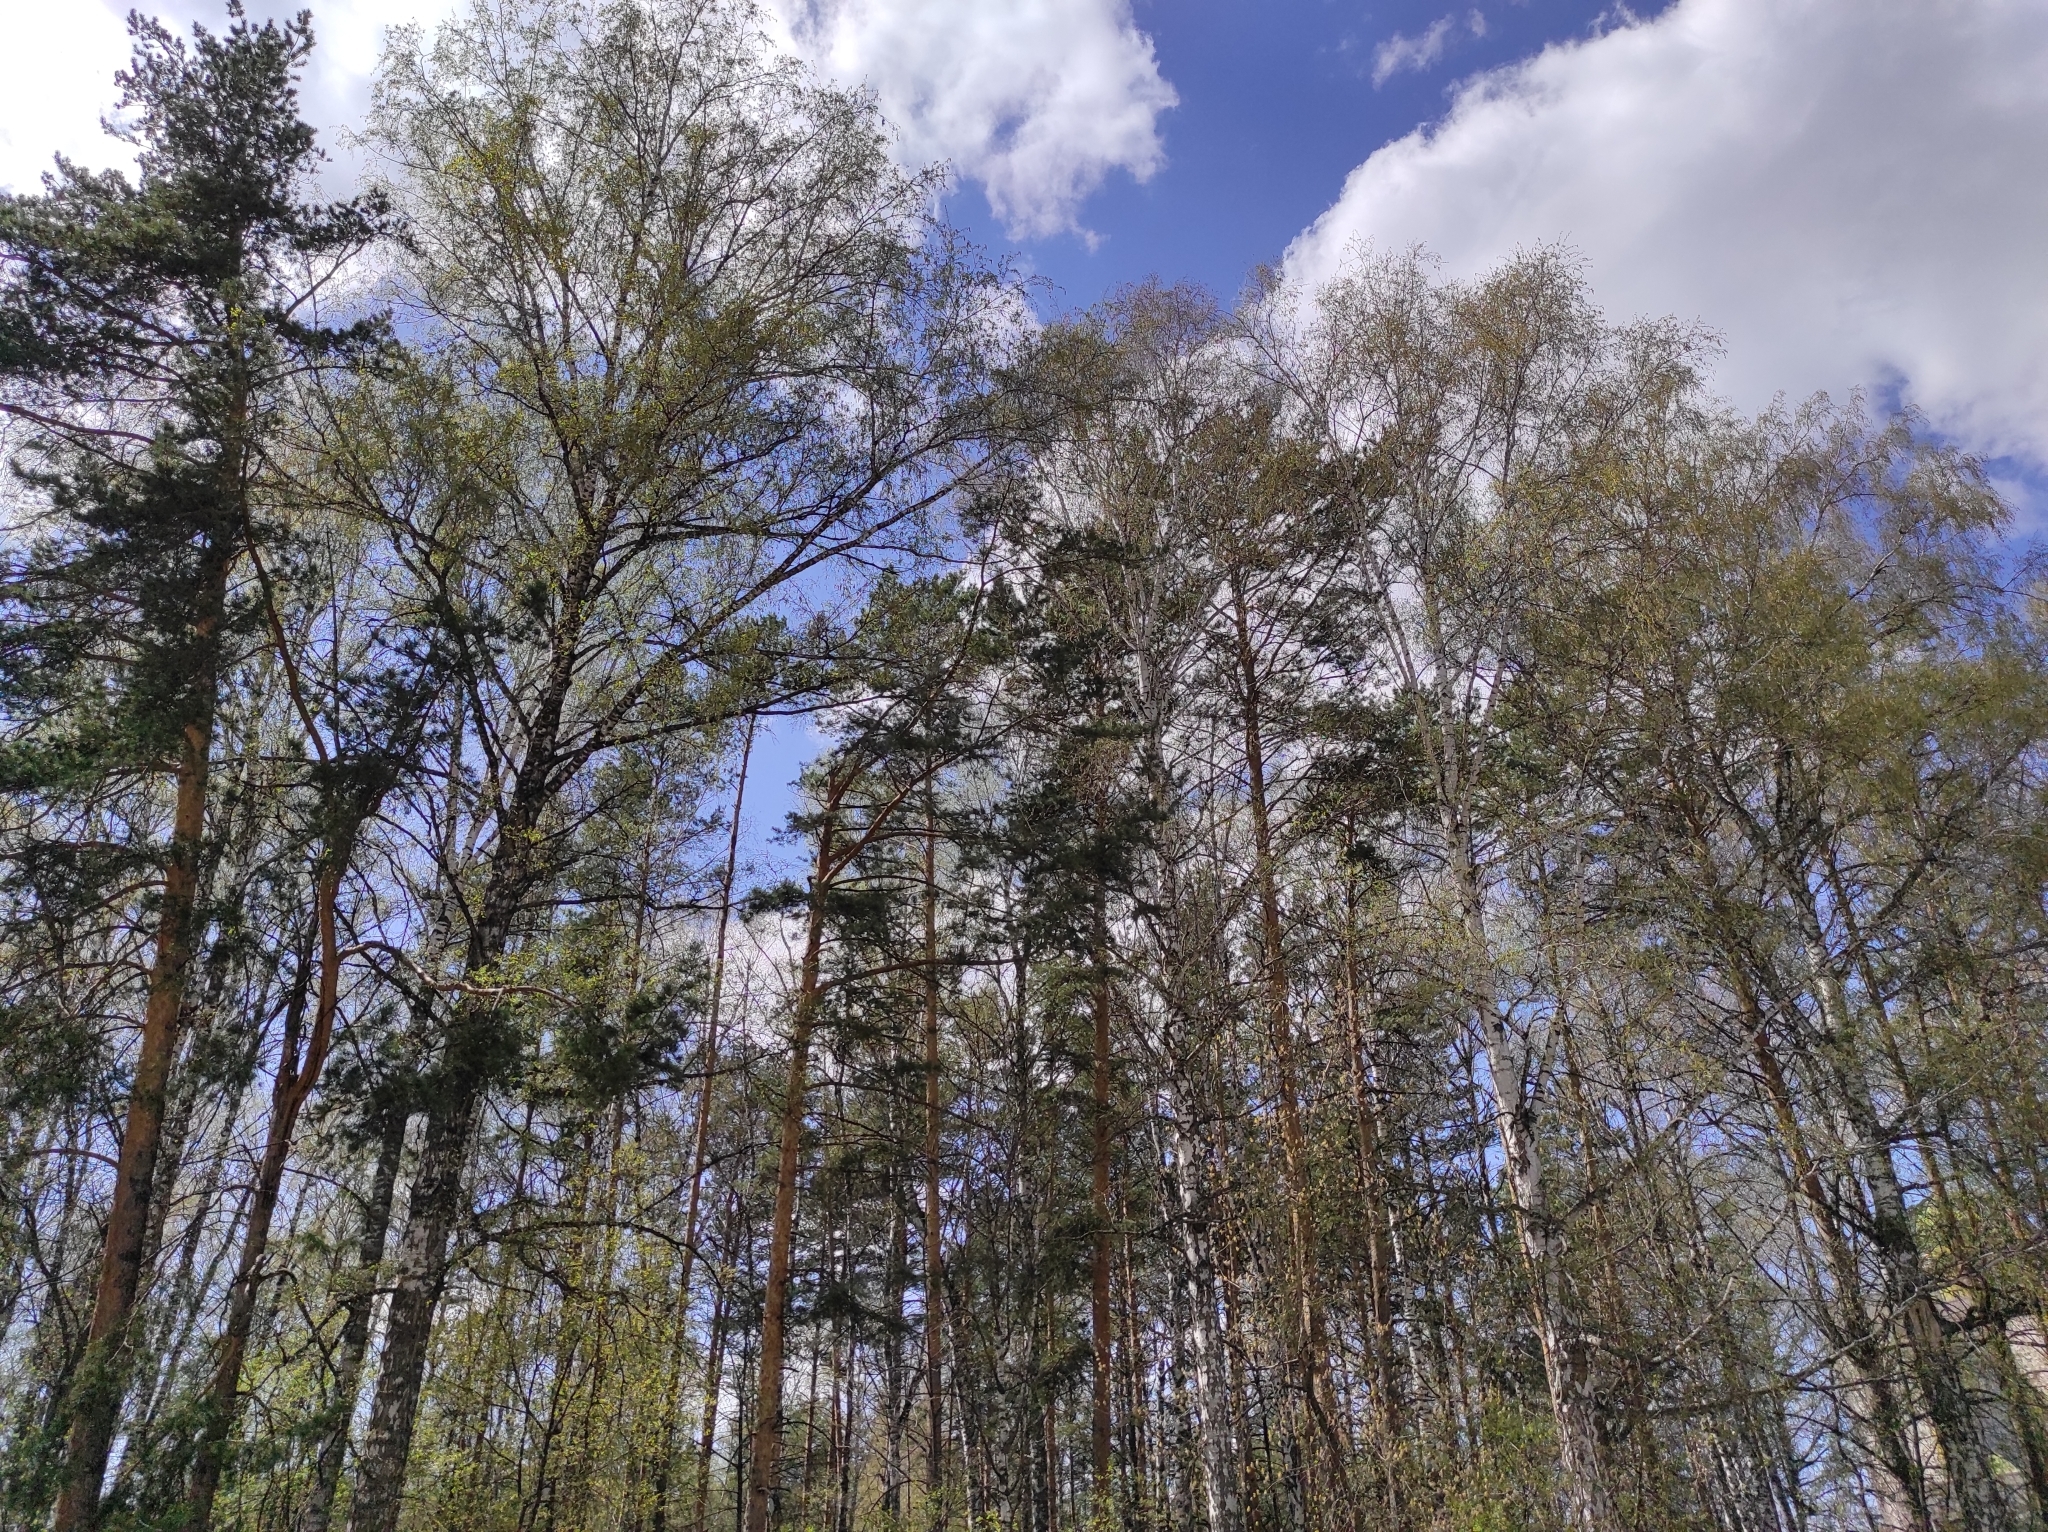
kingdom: Plantae
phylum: Tracheophyta
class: Pinopsida
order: Pinales
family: Pinaceae
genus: Pinus
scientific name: Pinus sylvestris
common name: Scots pine
